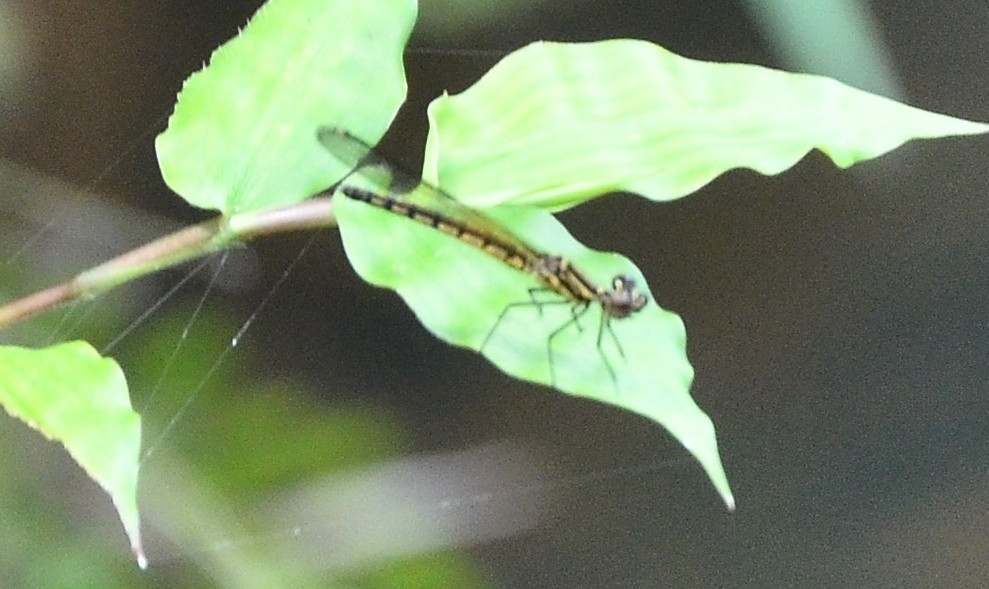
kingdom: Animalia
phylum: Arthropoda
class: Insecta
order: Odonata
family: Chlorocyphidae
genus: Libellago
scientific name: Libellago indica
